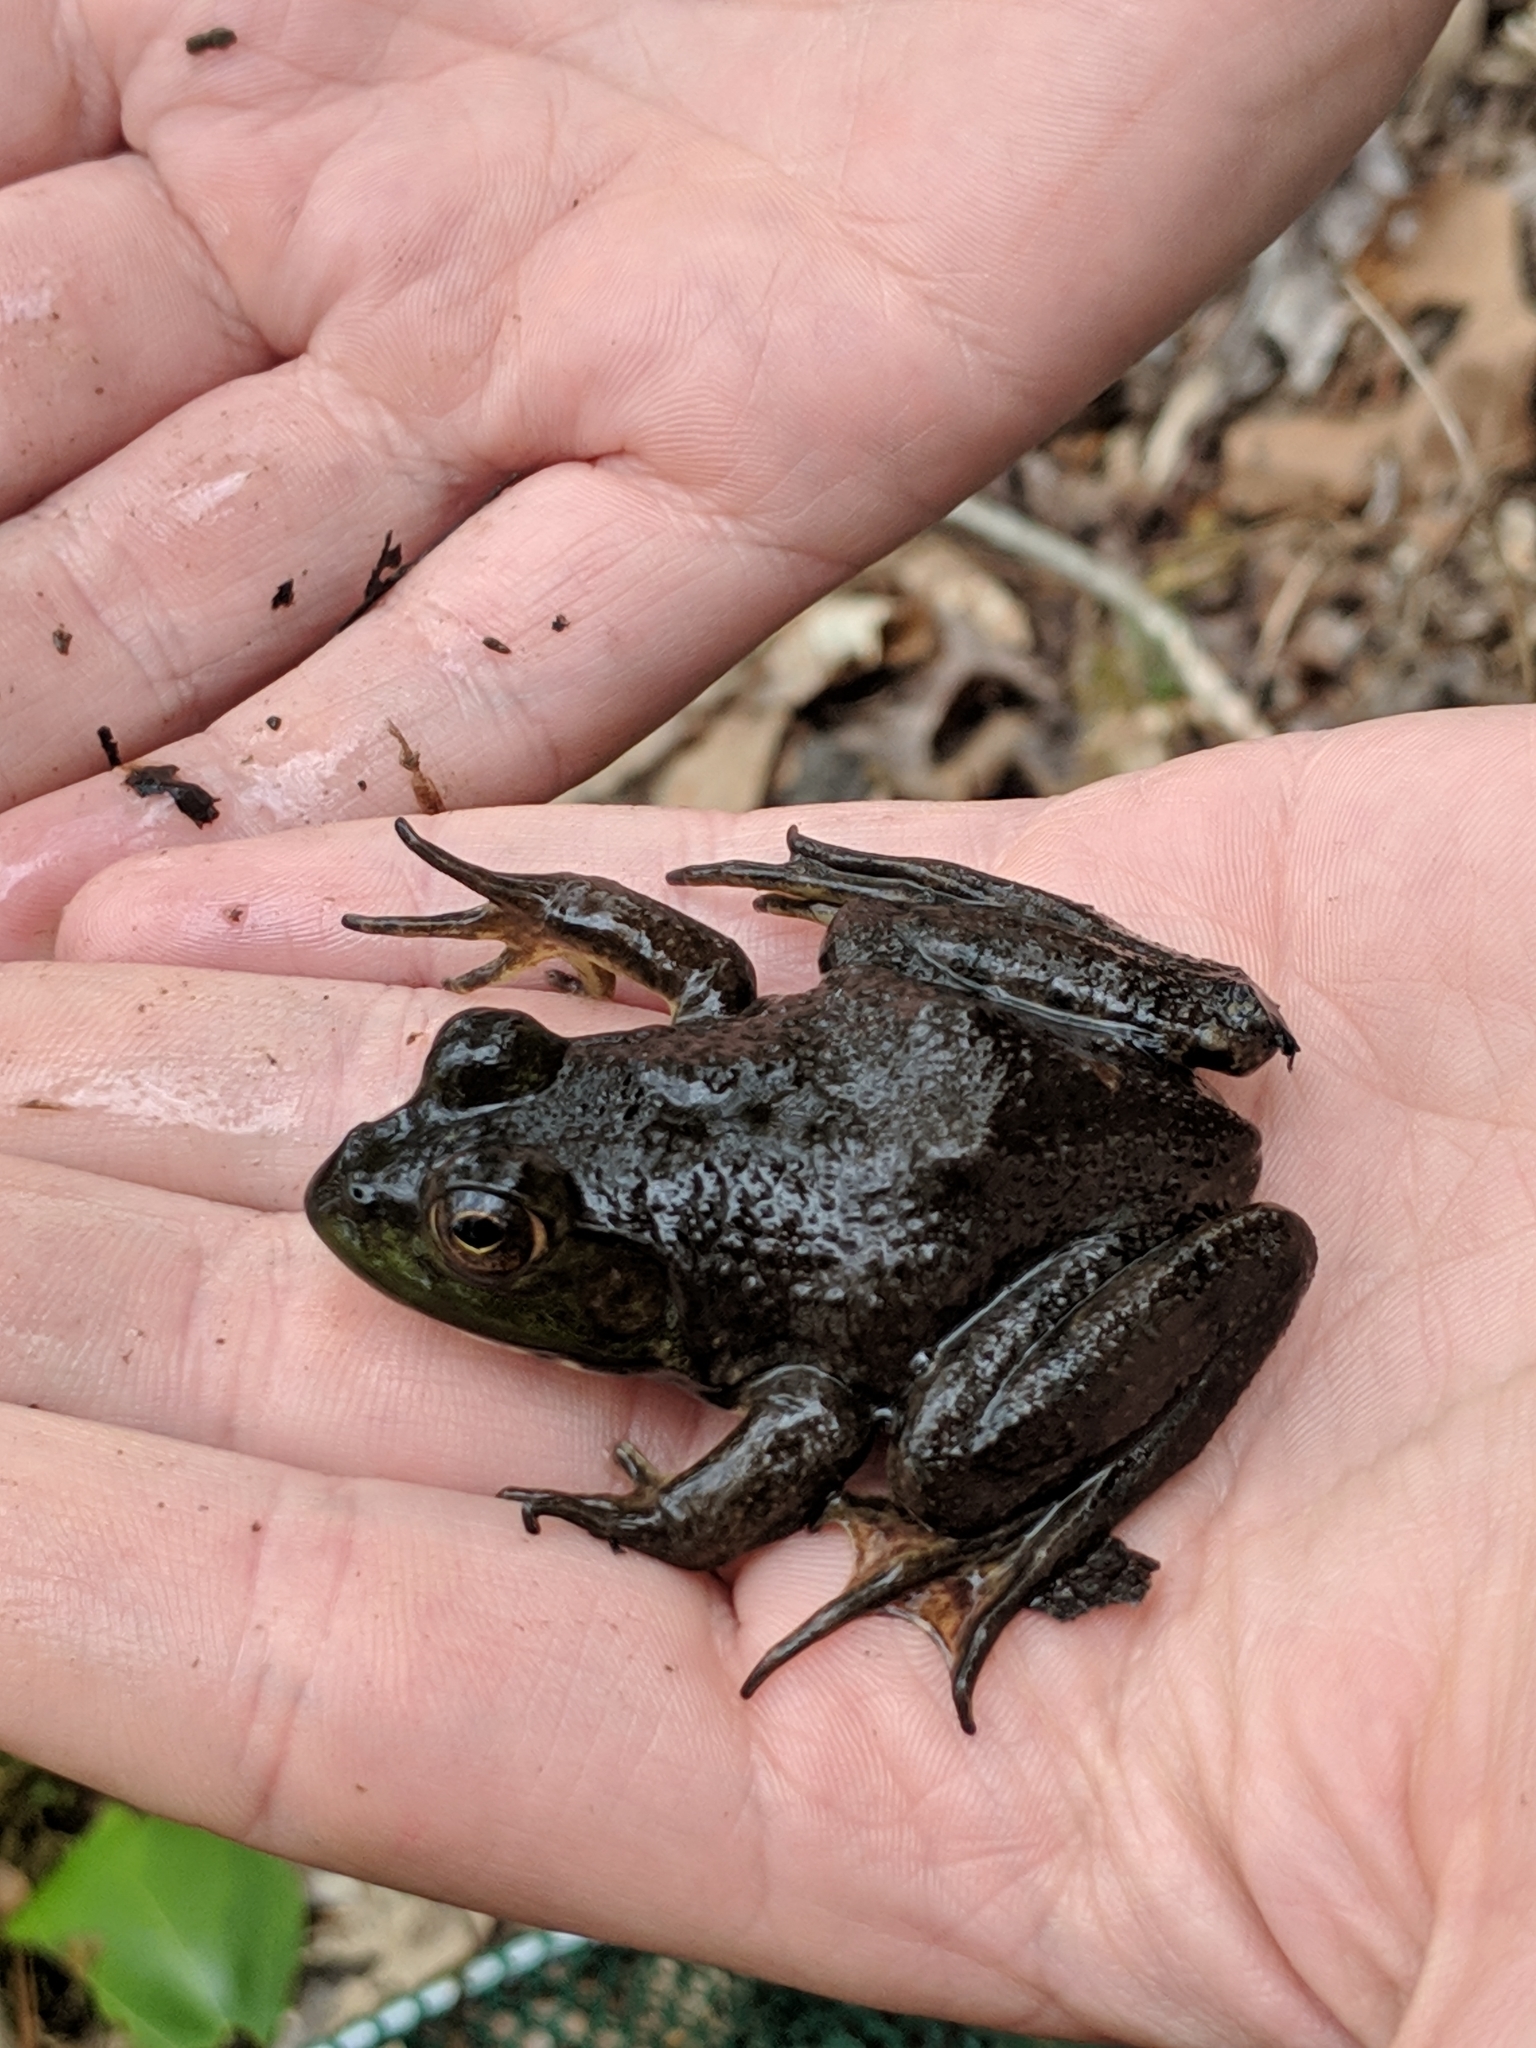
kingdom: Animalia
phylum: Chordata
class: Amphibia
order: Anura
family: Ranidae
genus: Lithobates
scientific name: Lithobates catesbeianus
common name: American bullfrog
